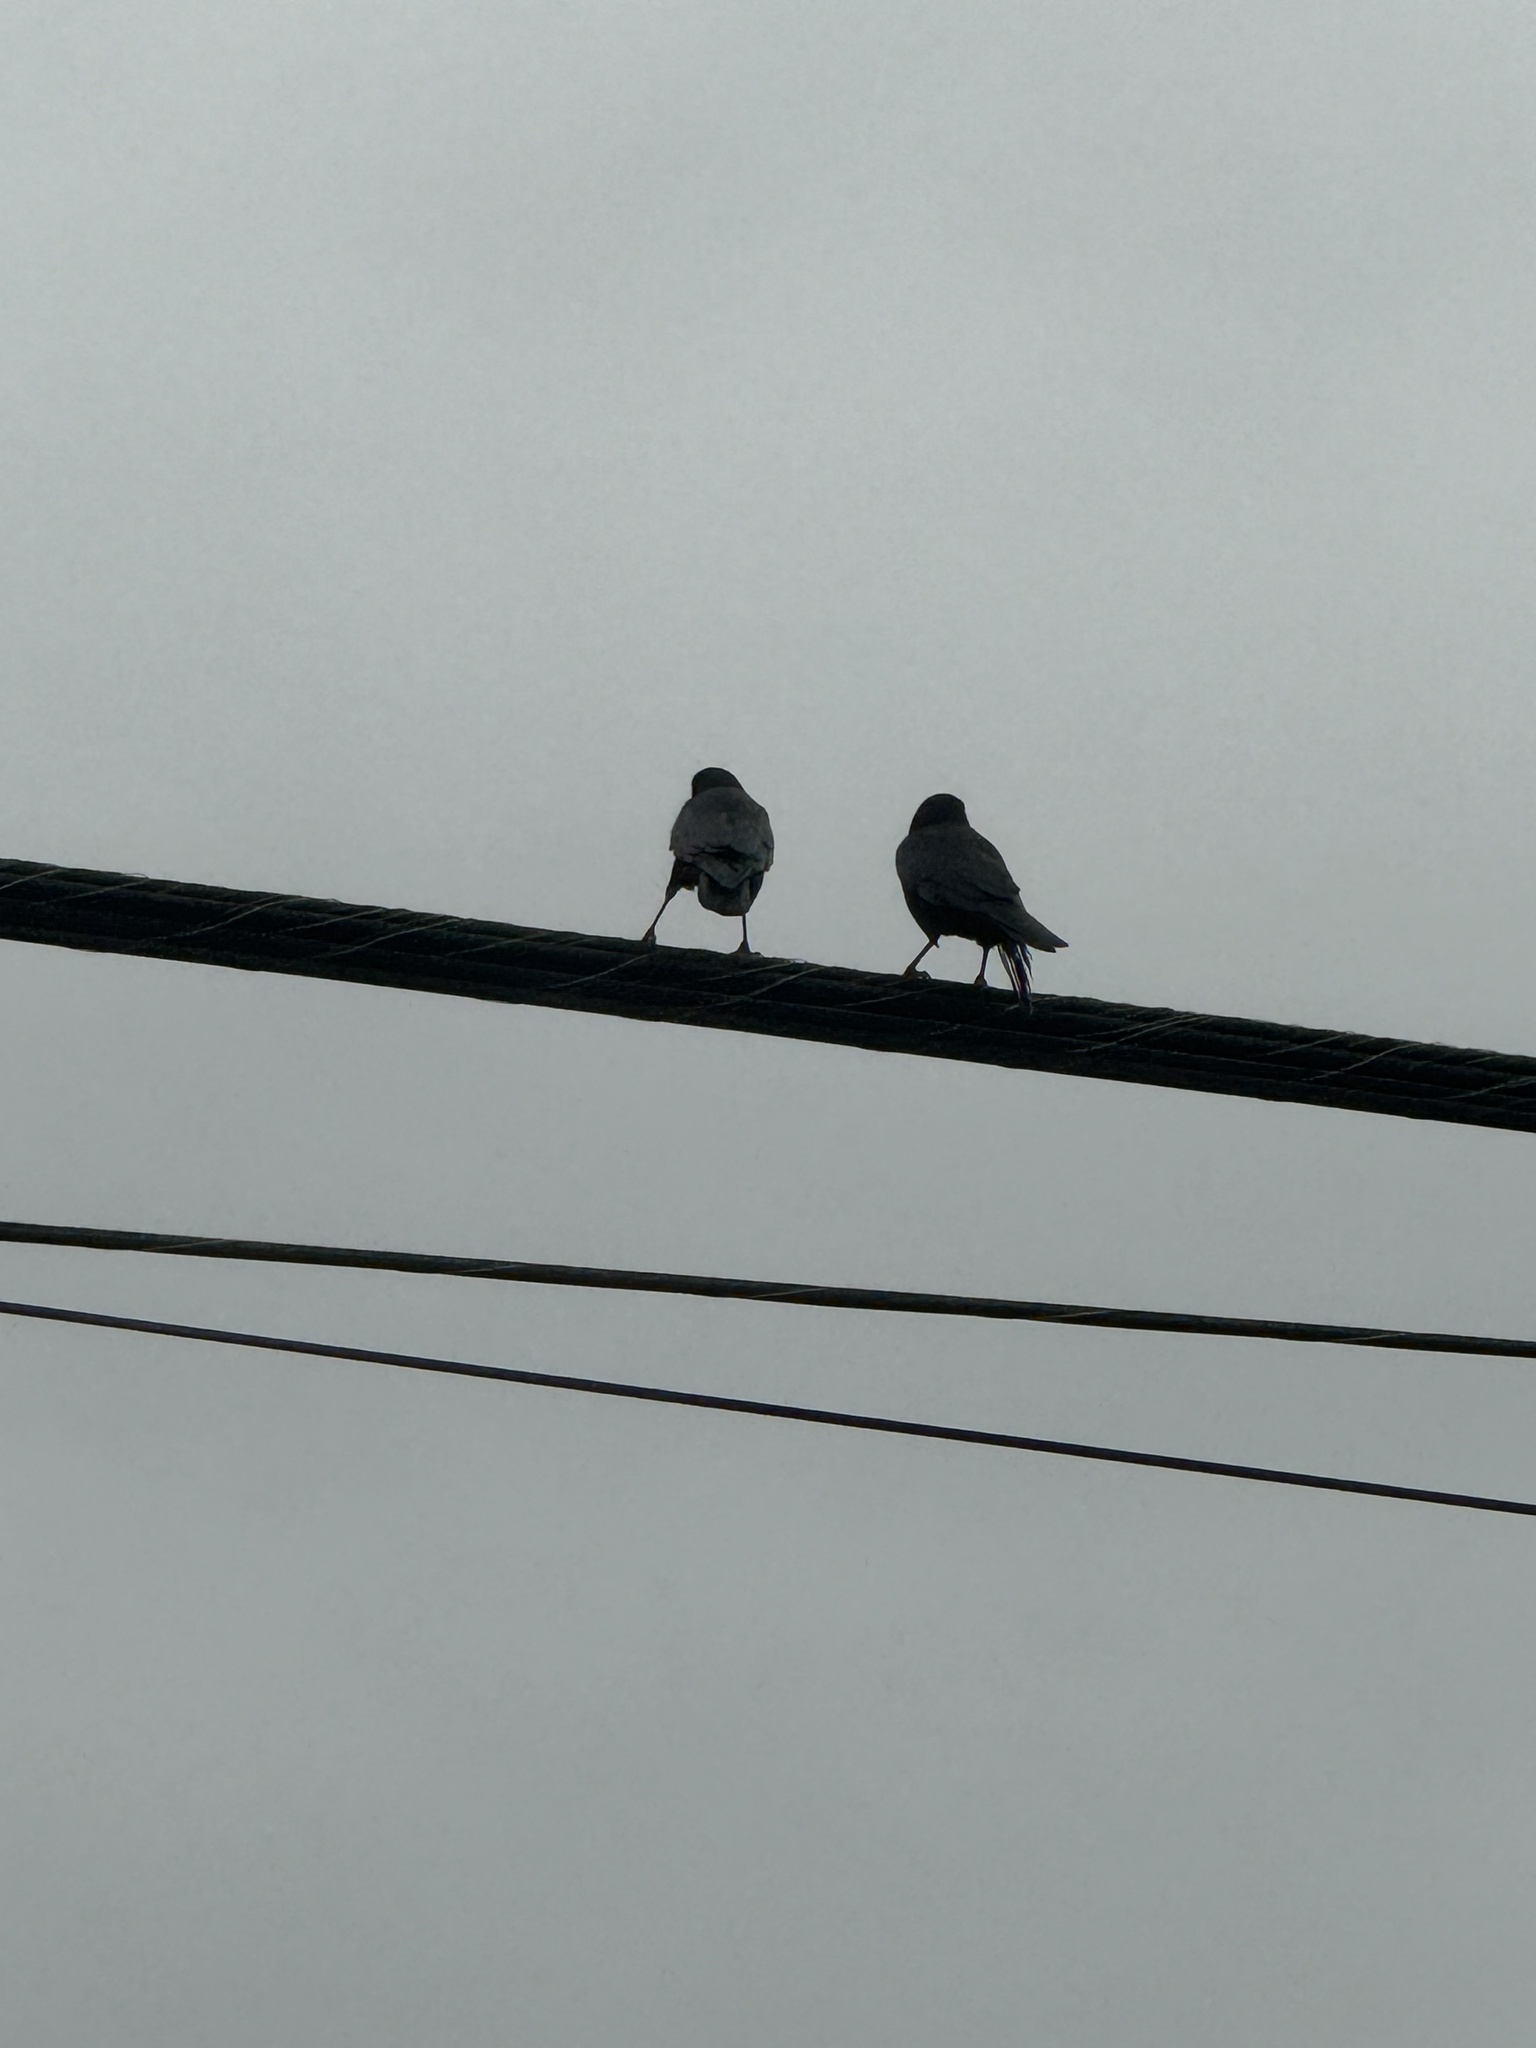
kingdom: Animalia
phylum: Chordata
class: Aves
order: Passeriformes
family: Corvidae
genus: Corvus
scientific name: Corvus corax
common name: Common raven
